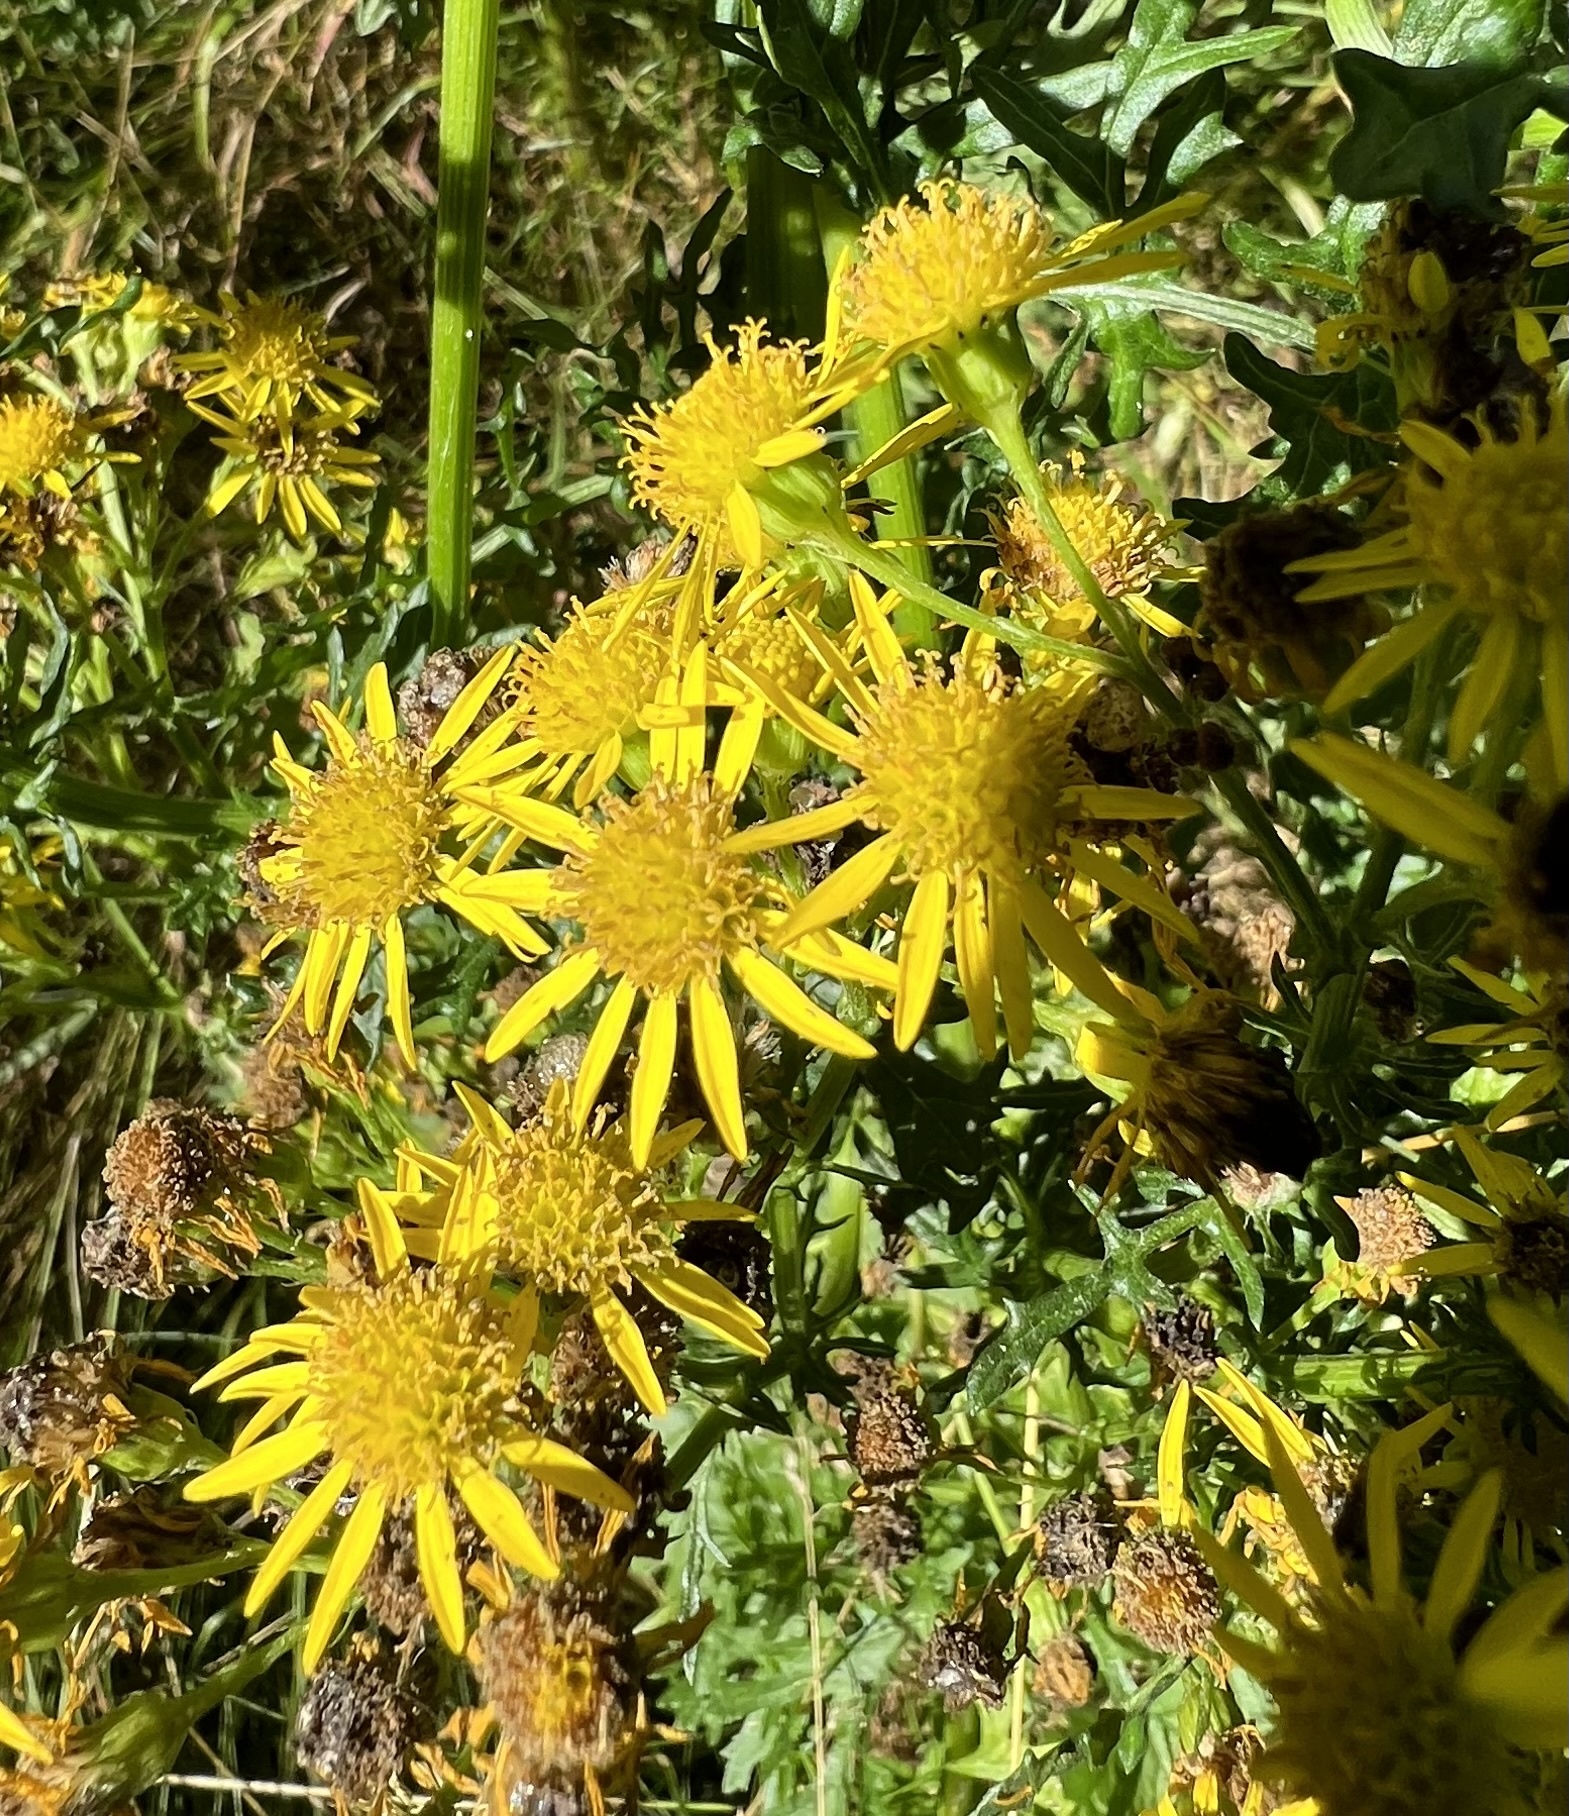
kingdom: Plantae
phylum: Tracheophyta
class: Magnoliopsida
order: Asterales
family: Asteraceae
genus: Jacobaea
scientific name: Jacobaea vulgaris
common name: Stinking willie
